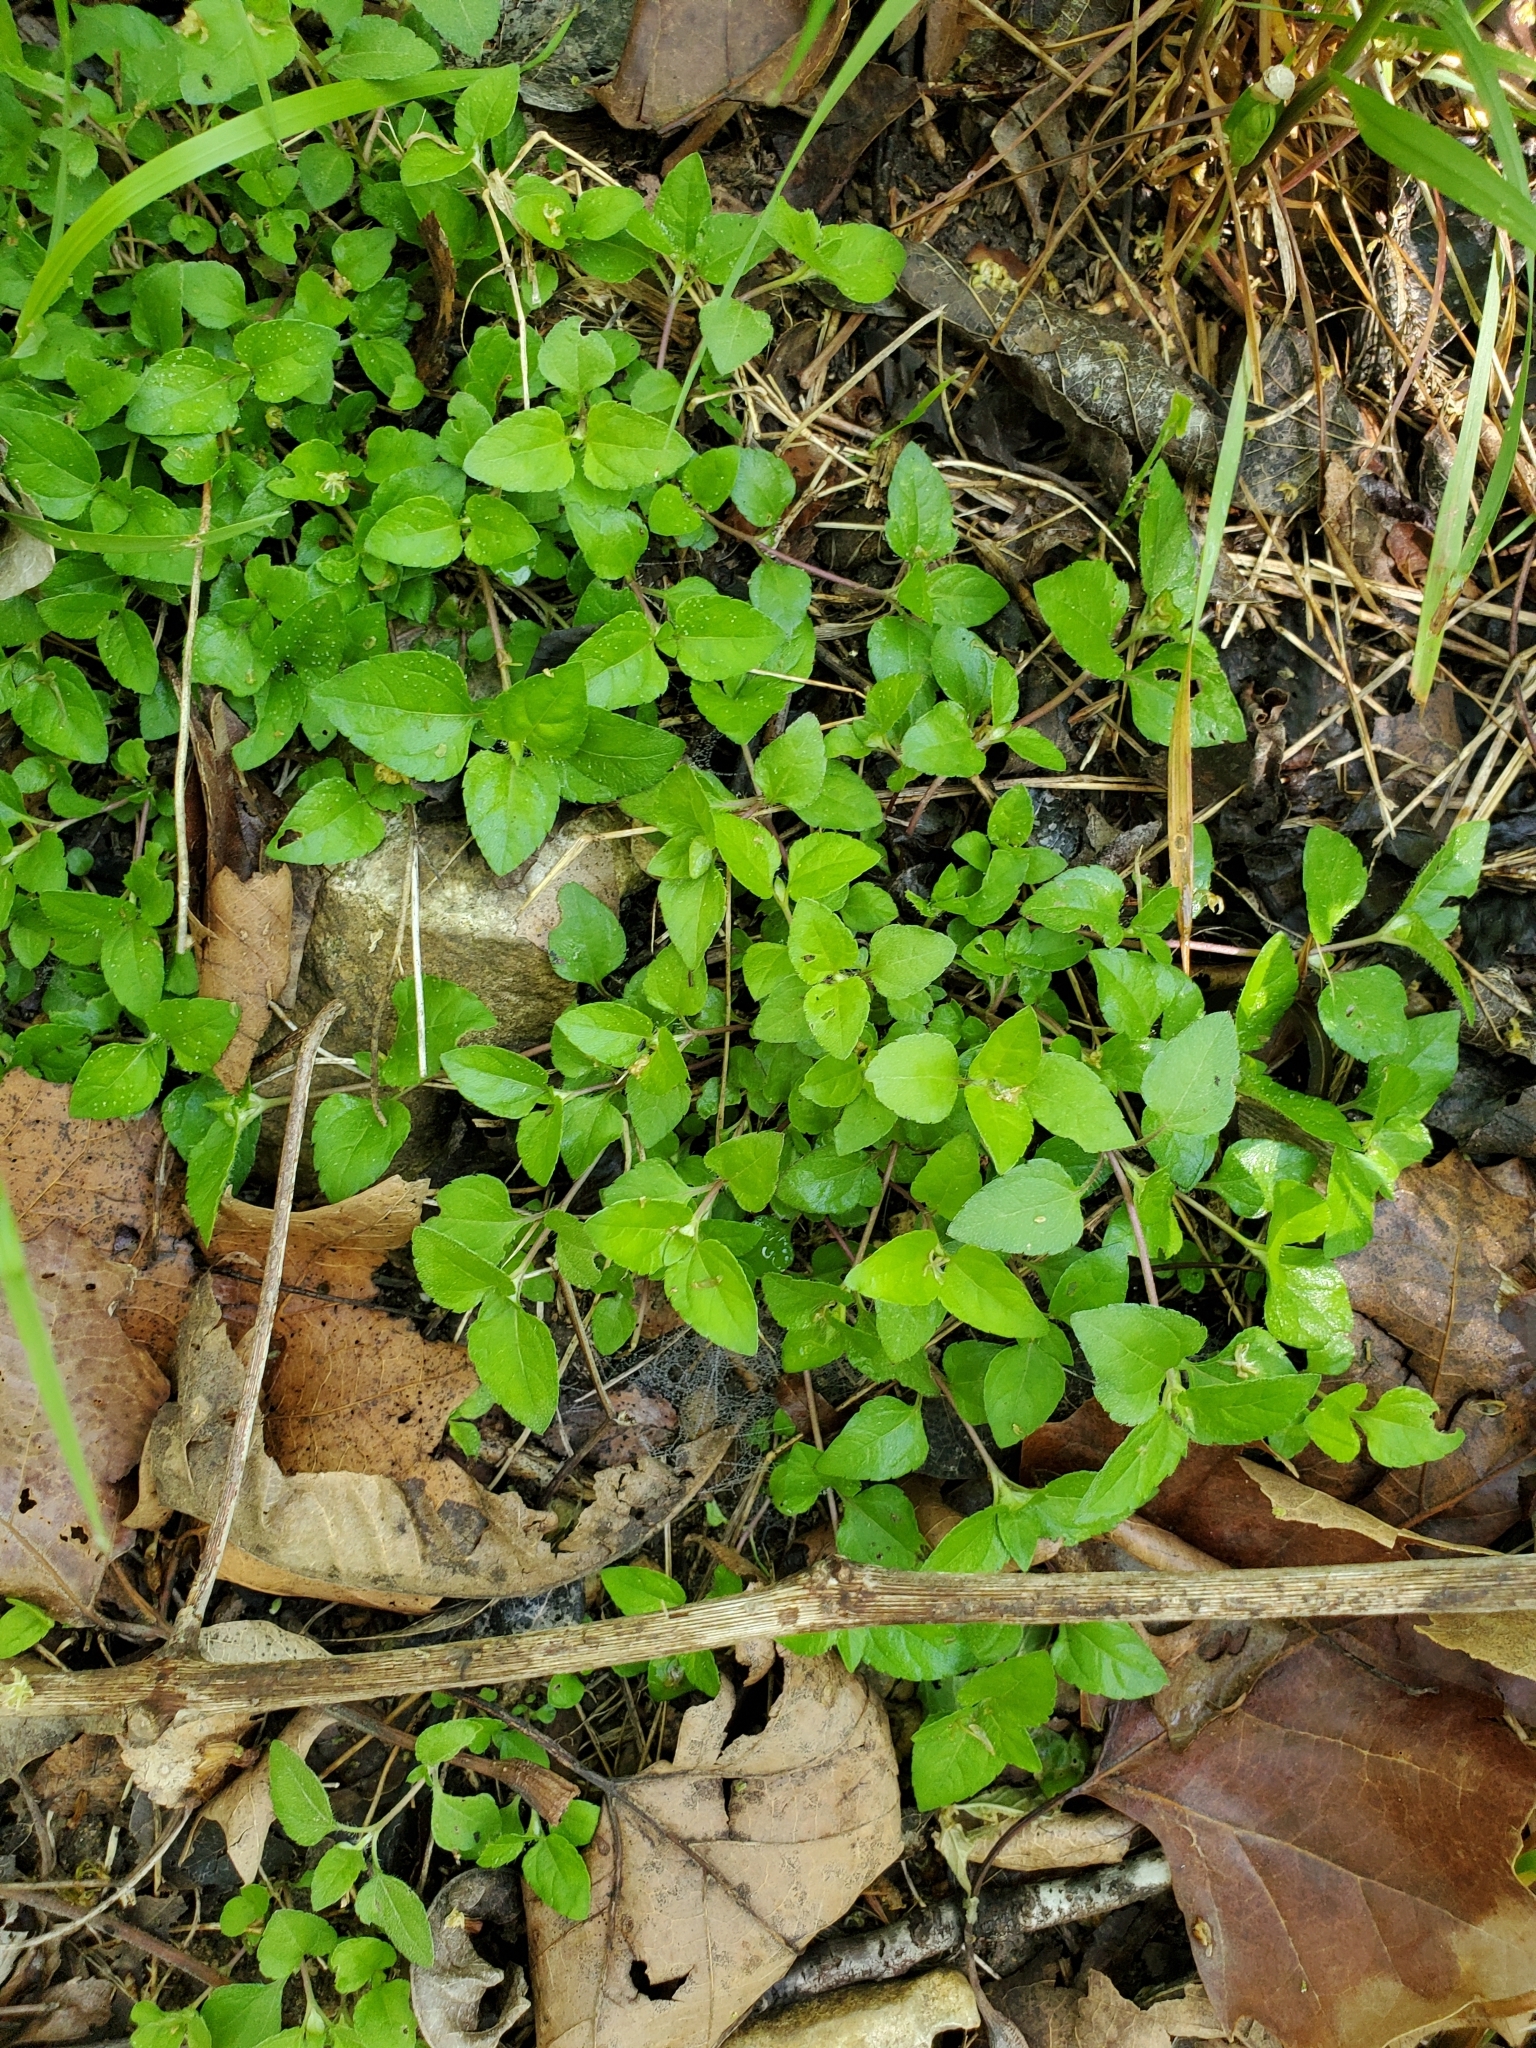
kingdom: Plantae
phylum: Tracheophyta
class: Magnoliopsida
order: Asterales
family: Asteraceae
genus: Calyptocarpus
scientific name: Calyptocarpus vialis
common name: Straggler daisy
